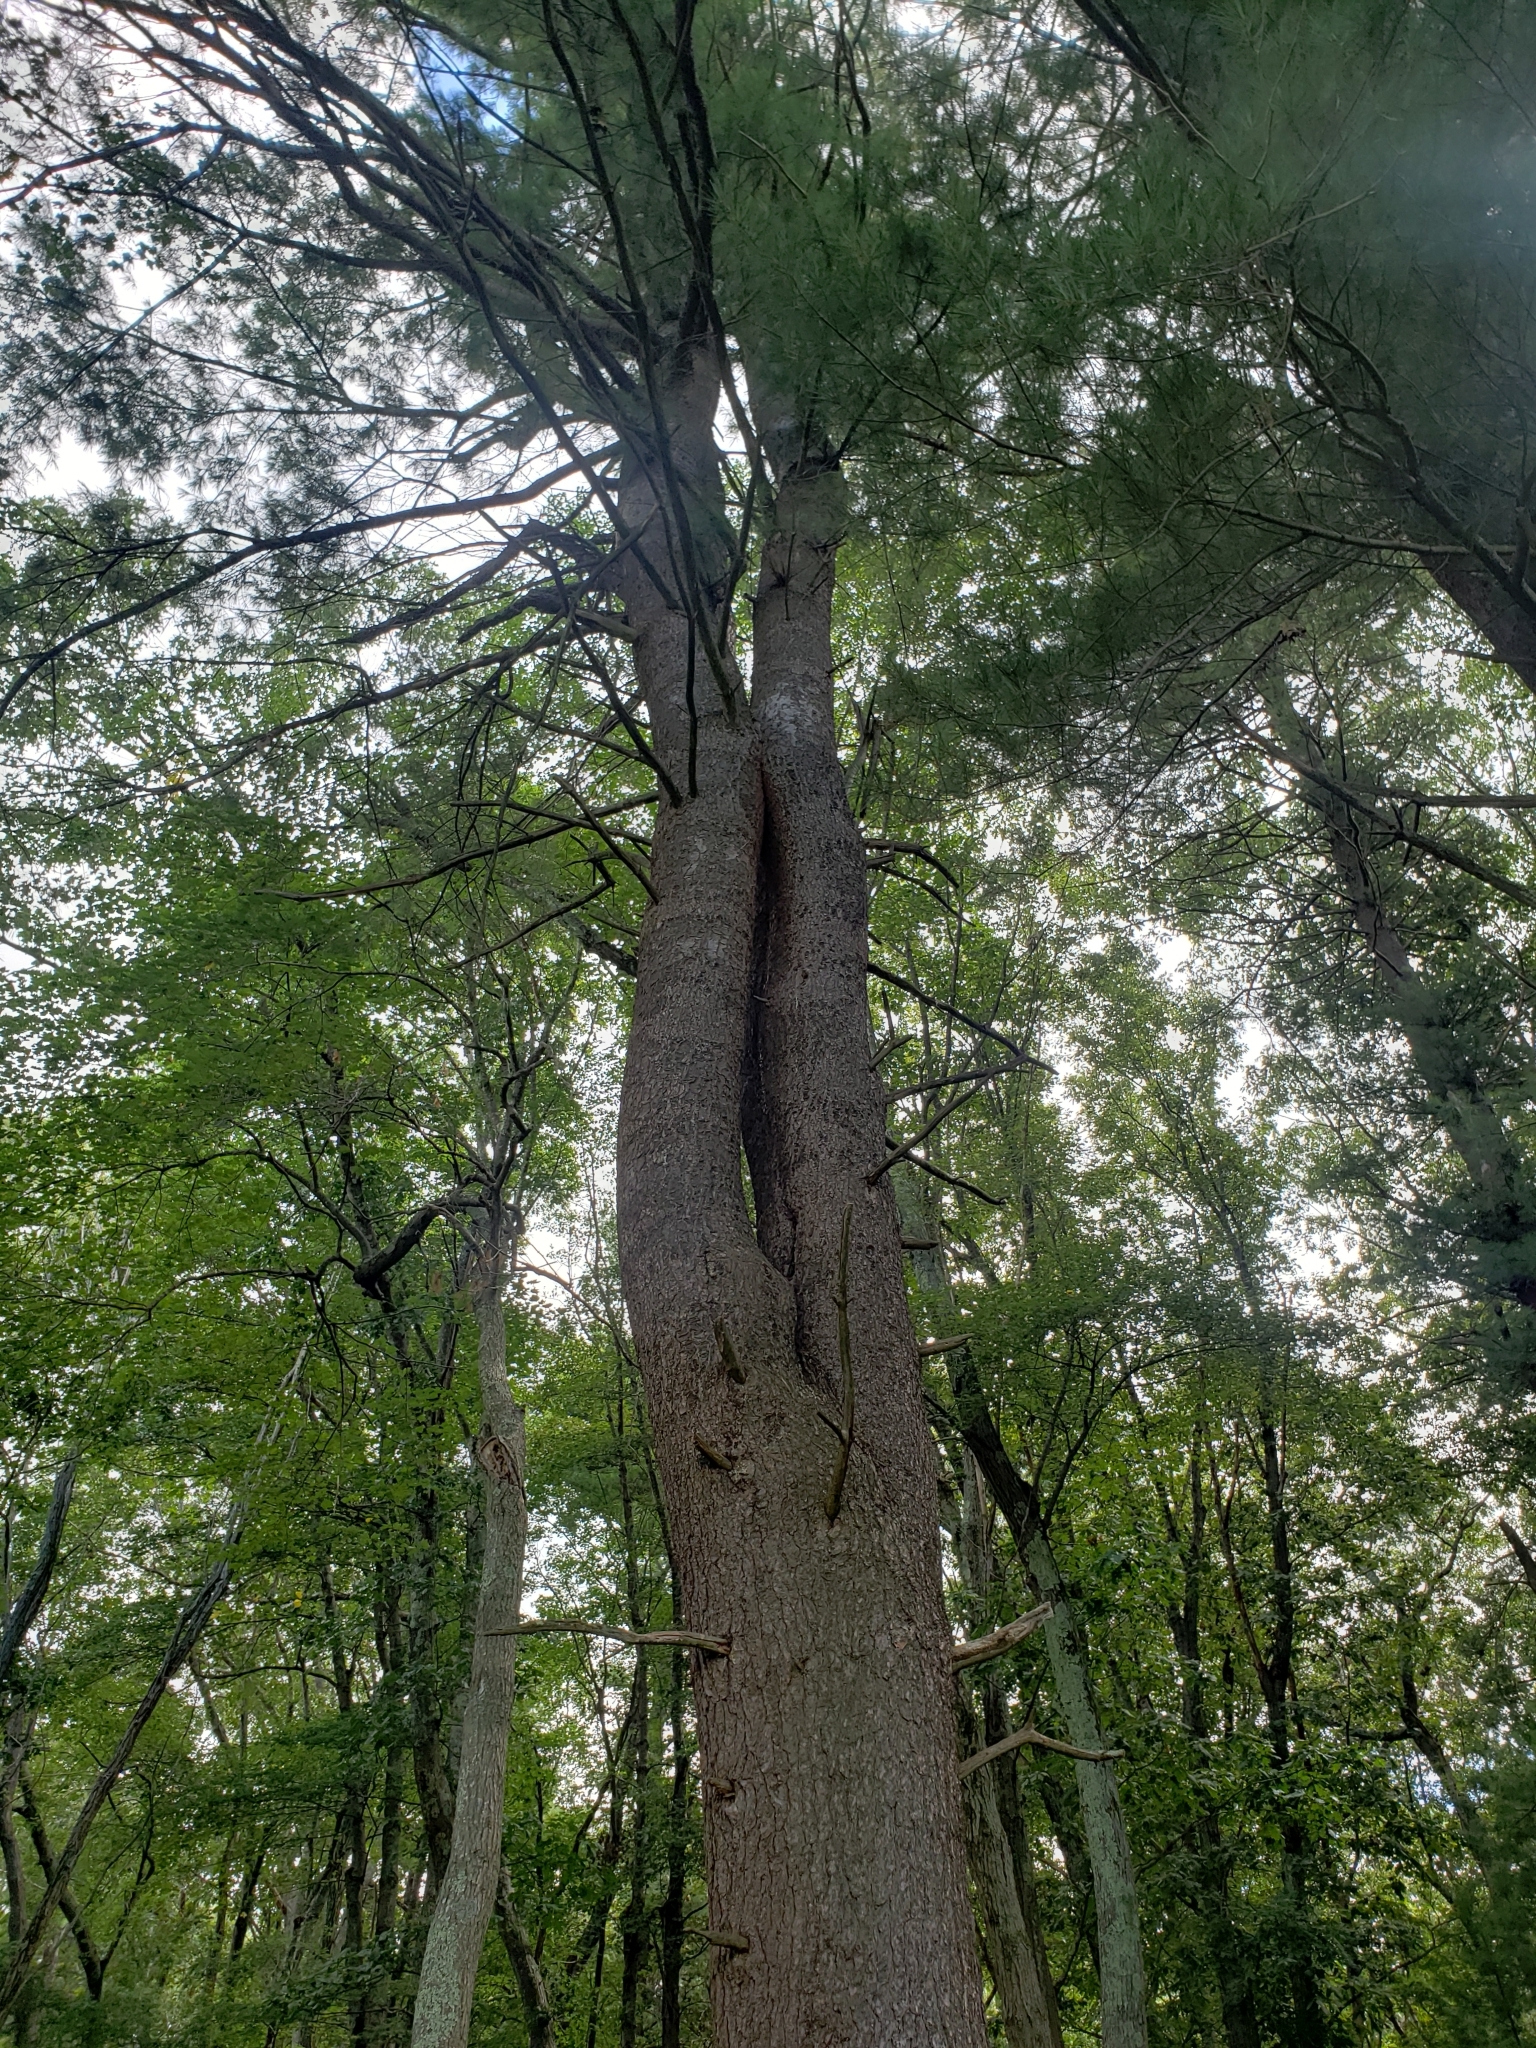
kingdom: Plantae
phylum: Tracheophyta
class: Pinopsida
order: Pinales
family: Pinaceae
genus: Pinus
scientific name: Pinus strobus
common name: Weymouth pine
